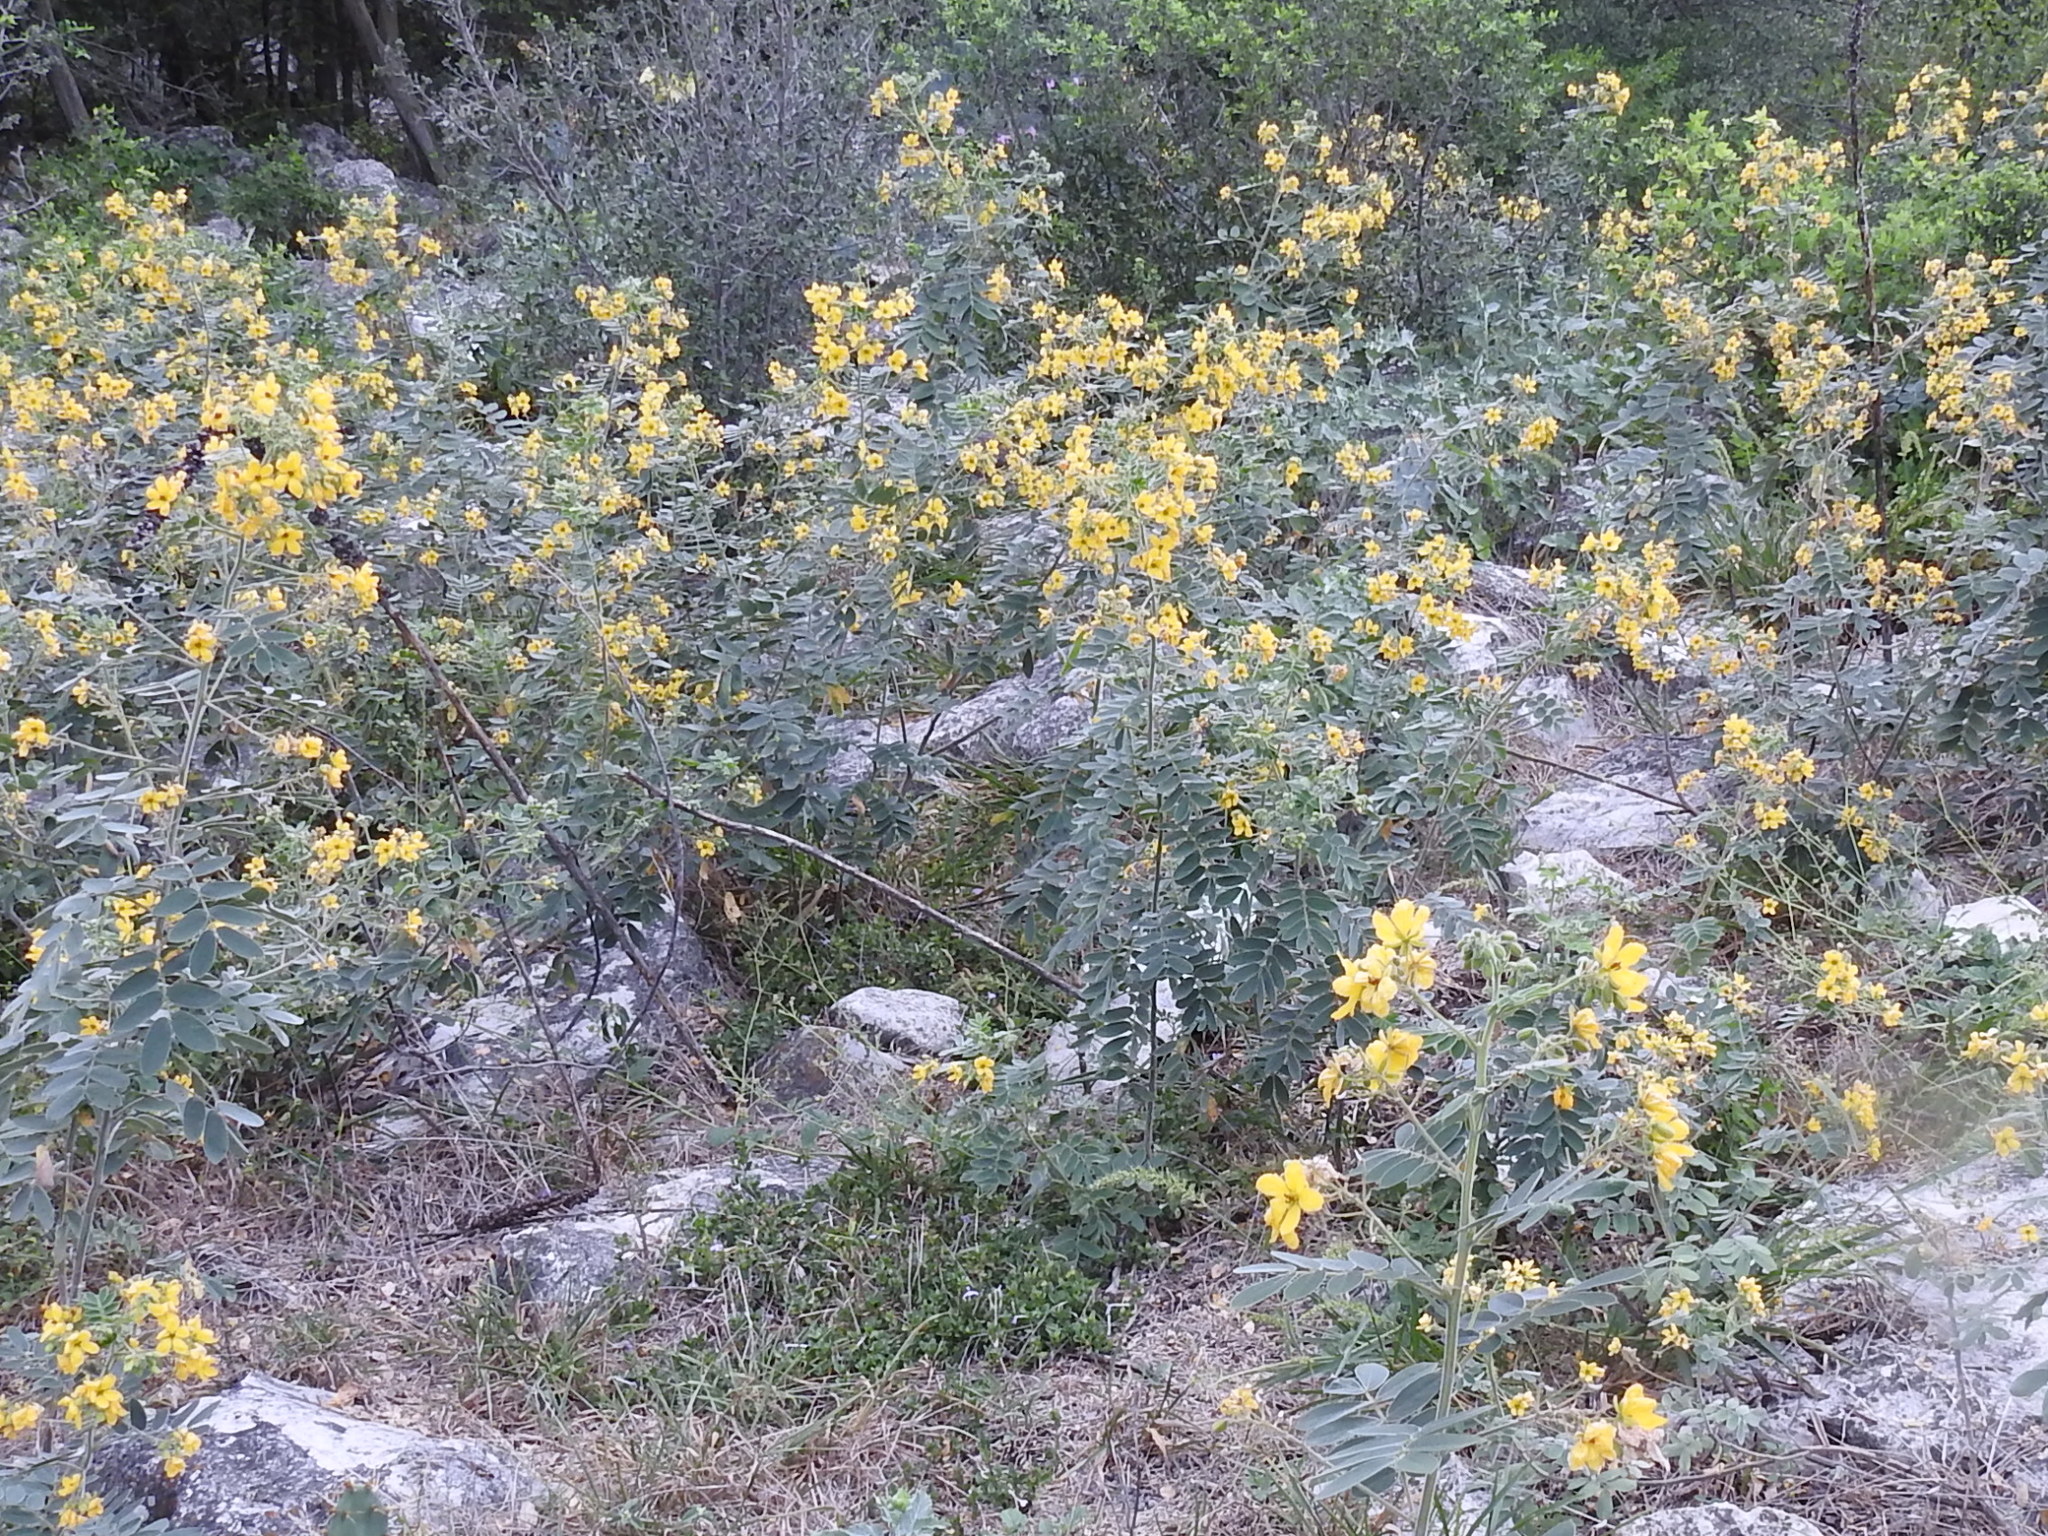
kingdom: Plantae
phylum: Tracheophyta
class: Magnoliopsida
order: Fabales
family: Fabaceae
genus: Senna
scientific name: Senna lindheimeriana
